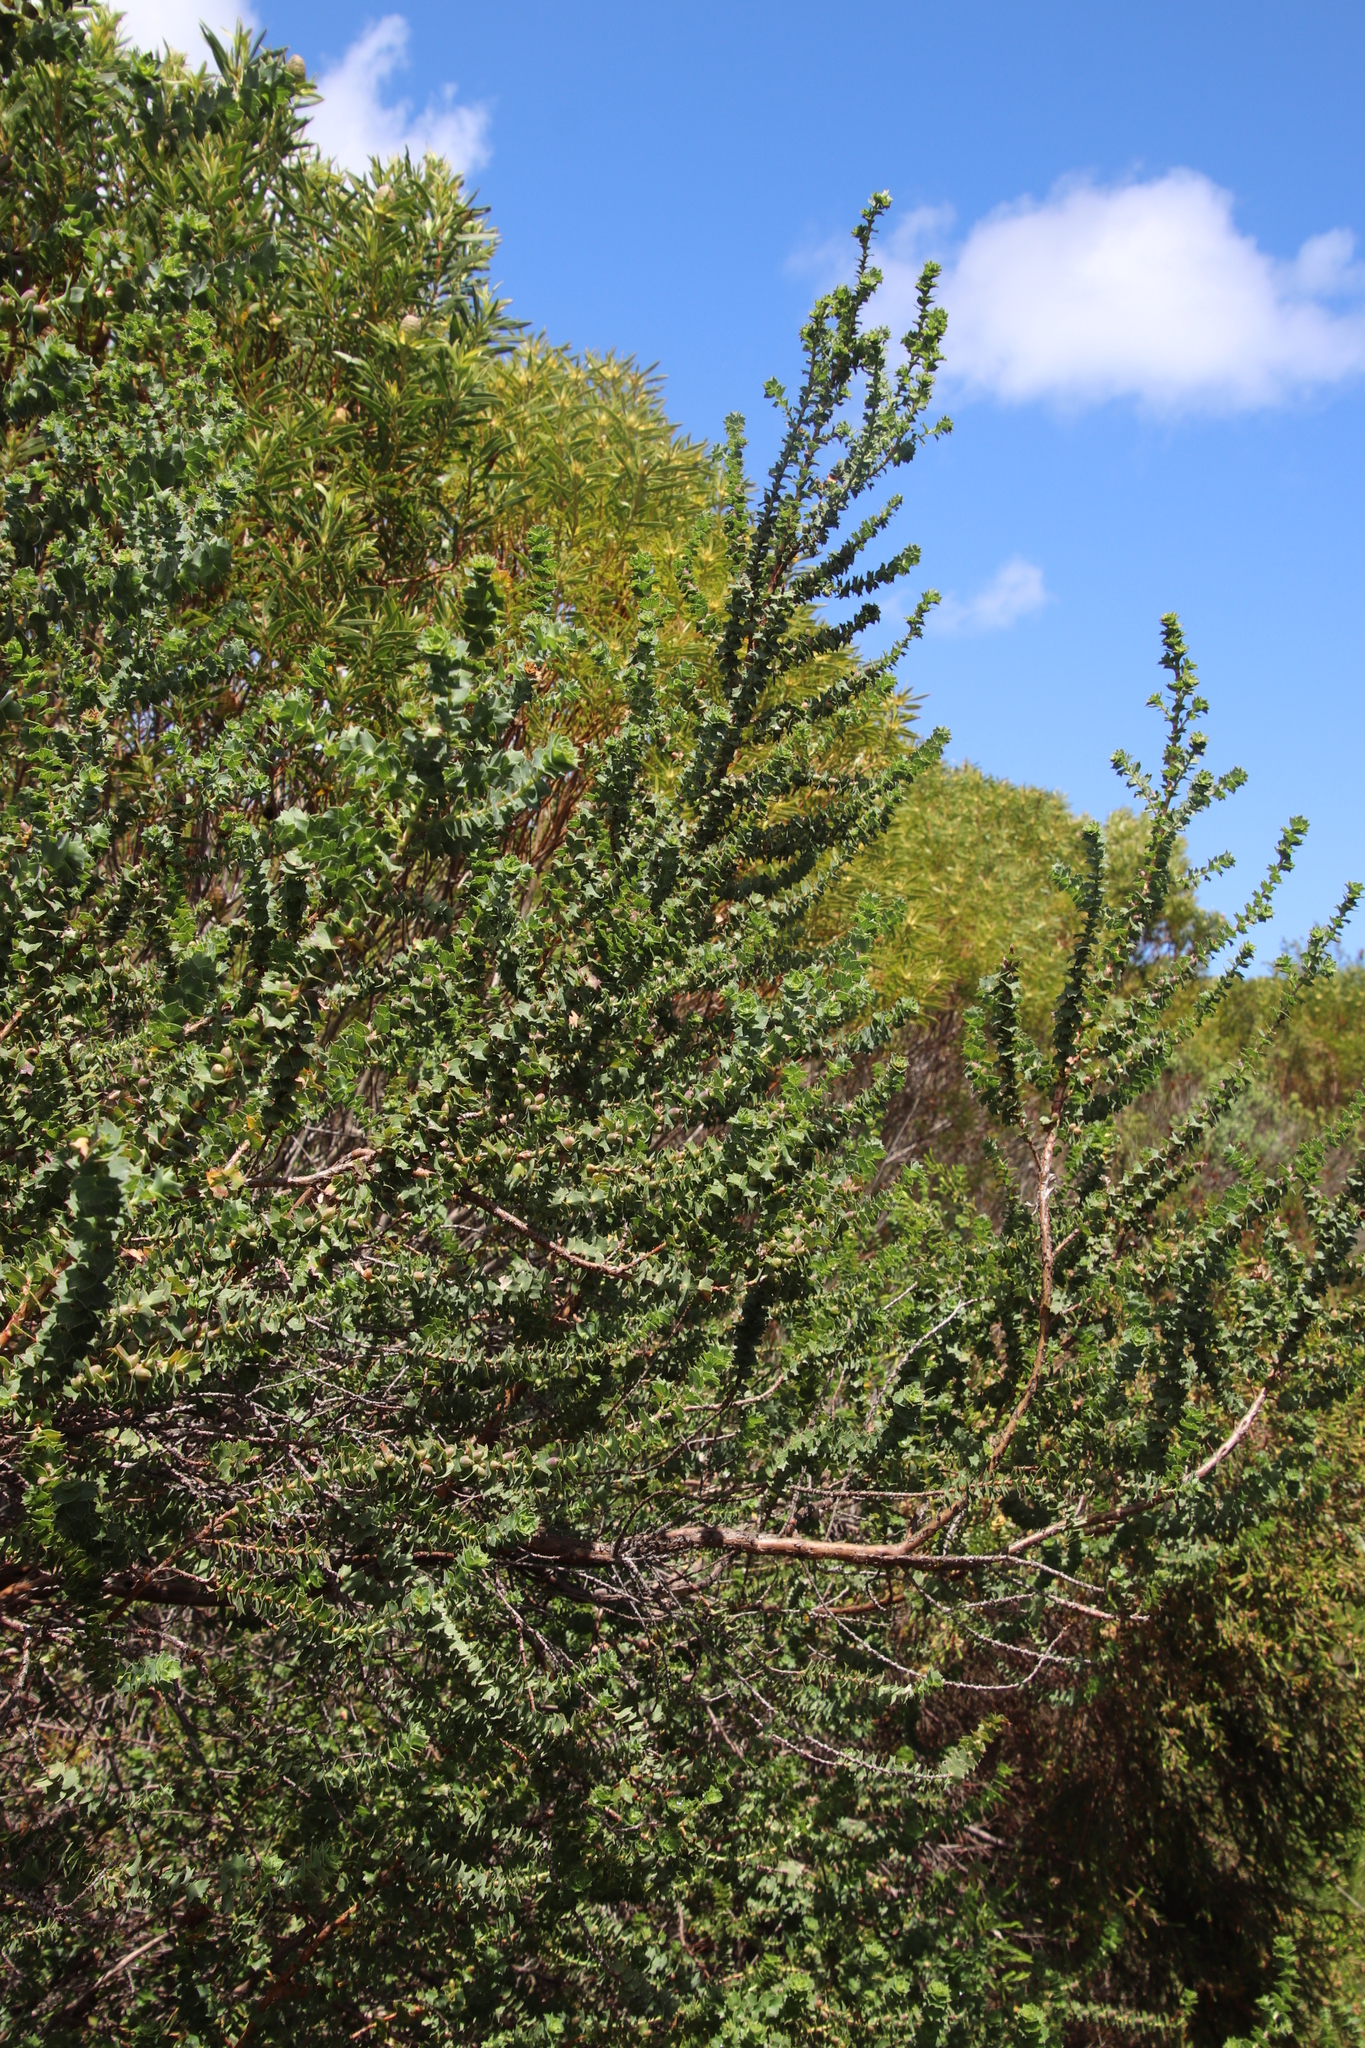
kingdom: Plantae
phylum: Tracheophyta
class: Magnoliopsida
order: Rosales
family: Rosaceae
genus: Cliffortia
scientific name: Cliffortia schlechteri
